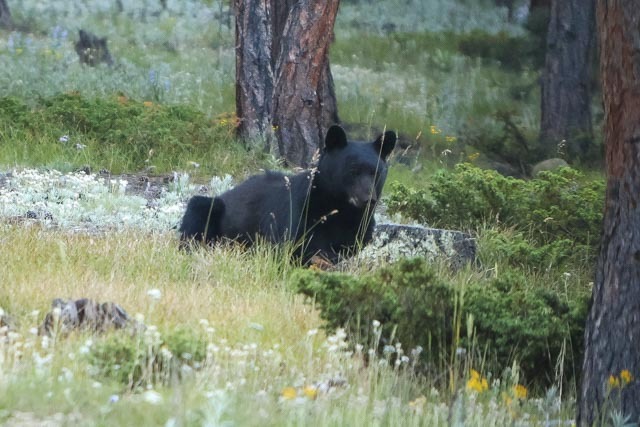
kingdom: Animalia
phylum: Chordata
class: Mammalia
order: Carnivora
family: Ursidae
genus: Ursus
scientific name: Ursus americanus
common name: American black bear
